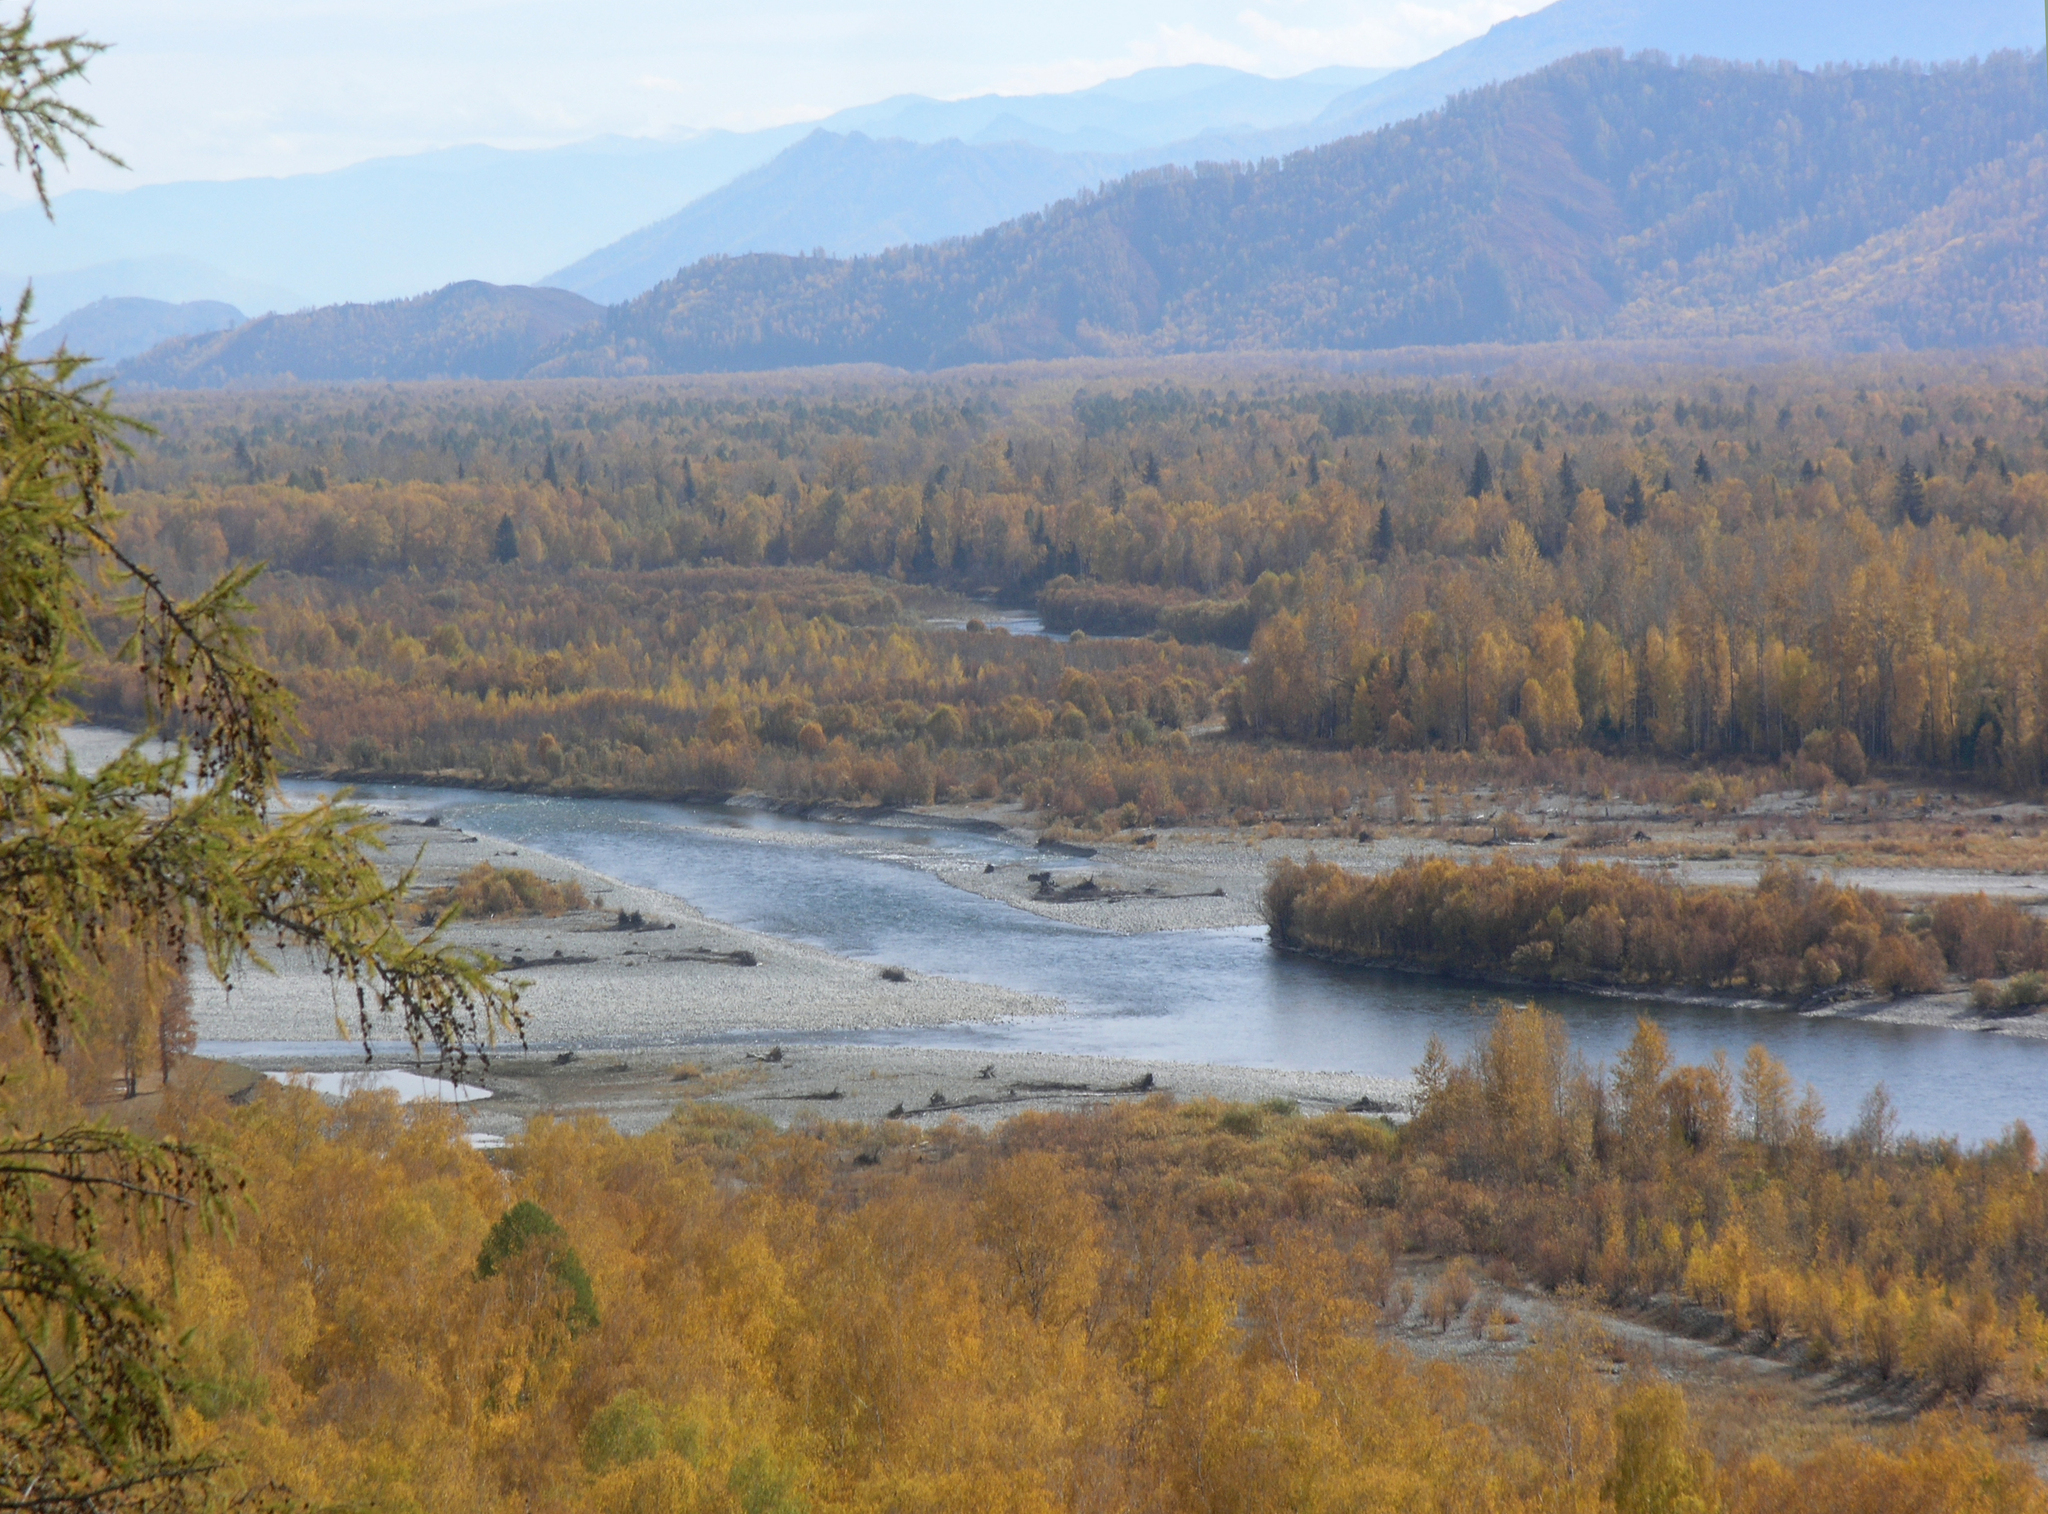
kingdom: Plantae
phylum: Tracheophyta
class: Magnoliopsida
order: Fagales
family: Betulaceae
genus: Betula
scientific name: Betula pendula
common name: Silver birch
